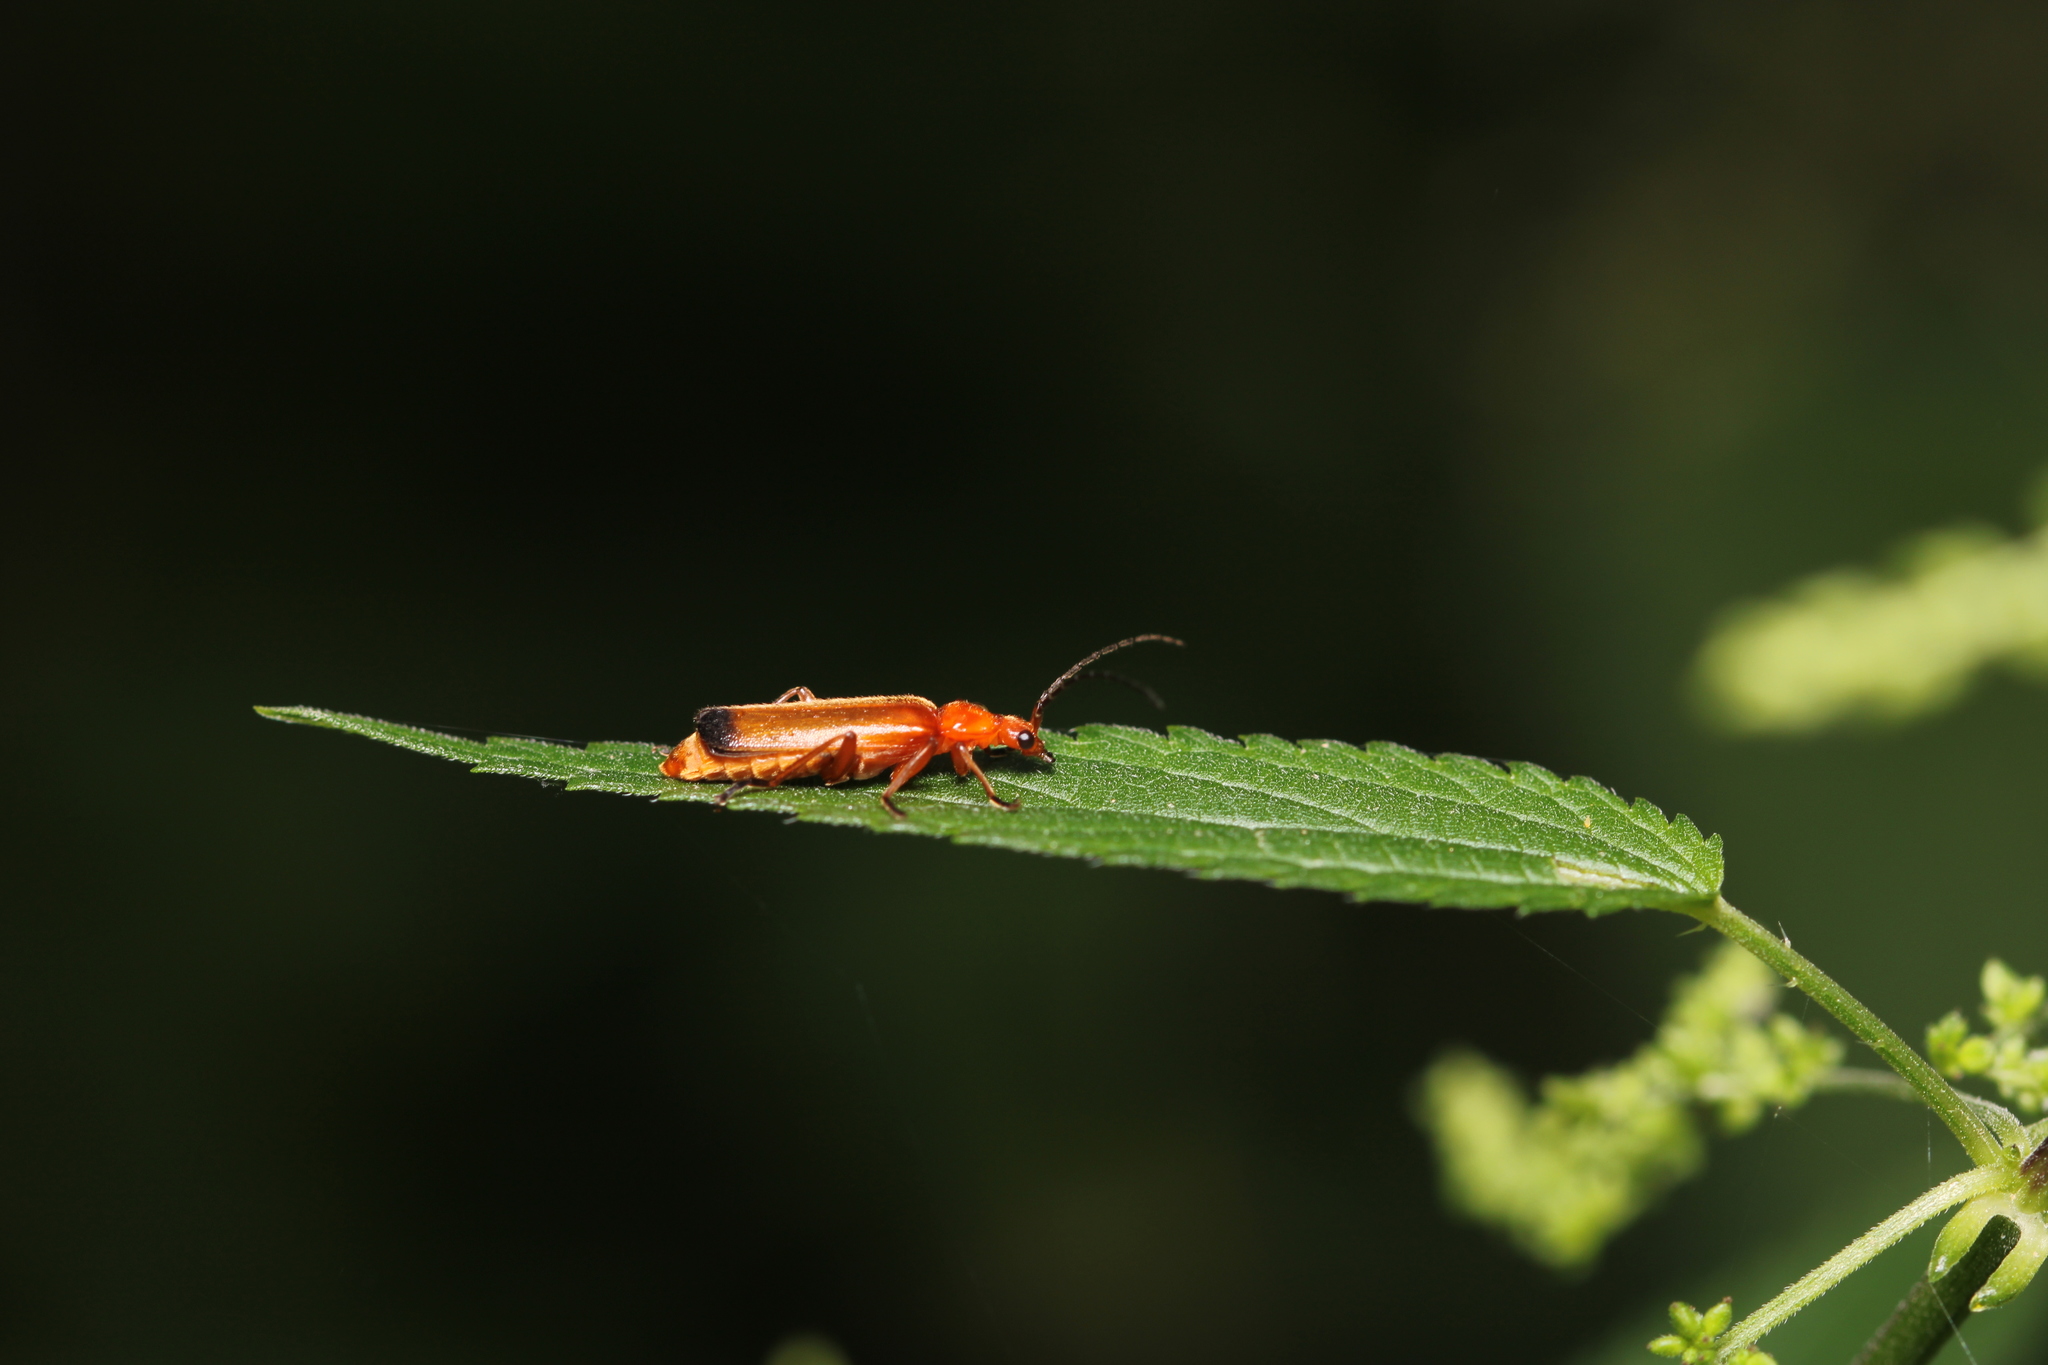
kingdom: Animalia
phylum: Arthropoda
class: Insecta
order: Coleoptera
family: Cantharidae
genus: Rhagonycha
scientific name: Rhagonycha fulva
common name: Common red soldier beetle
